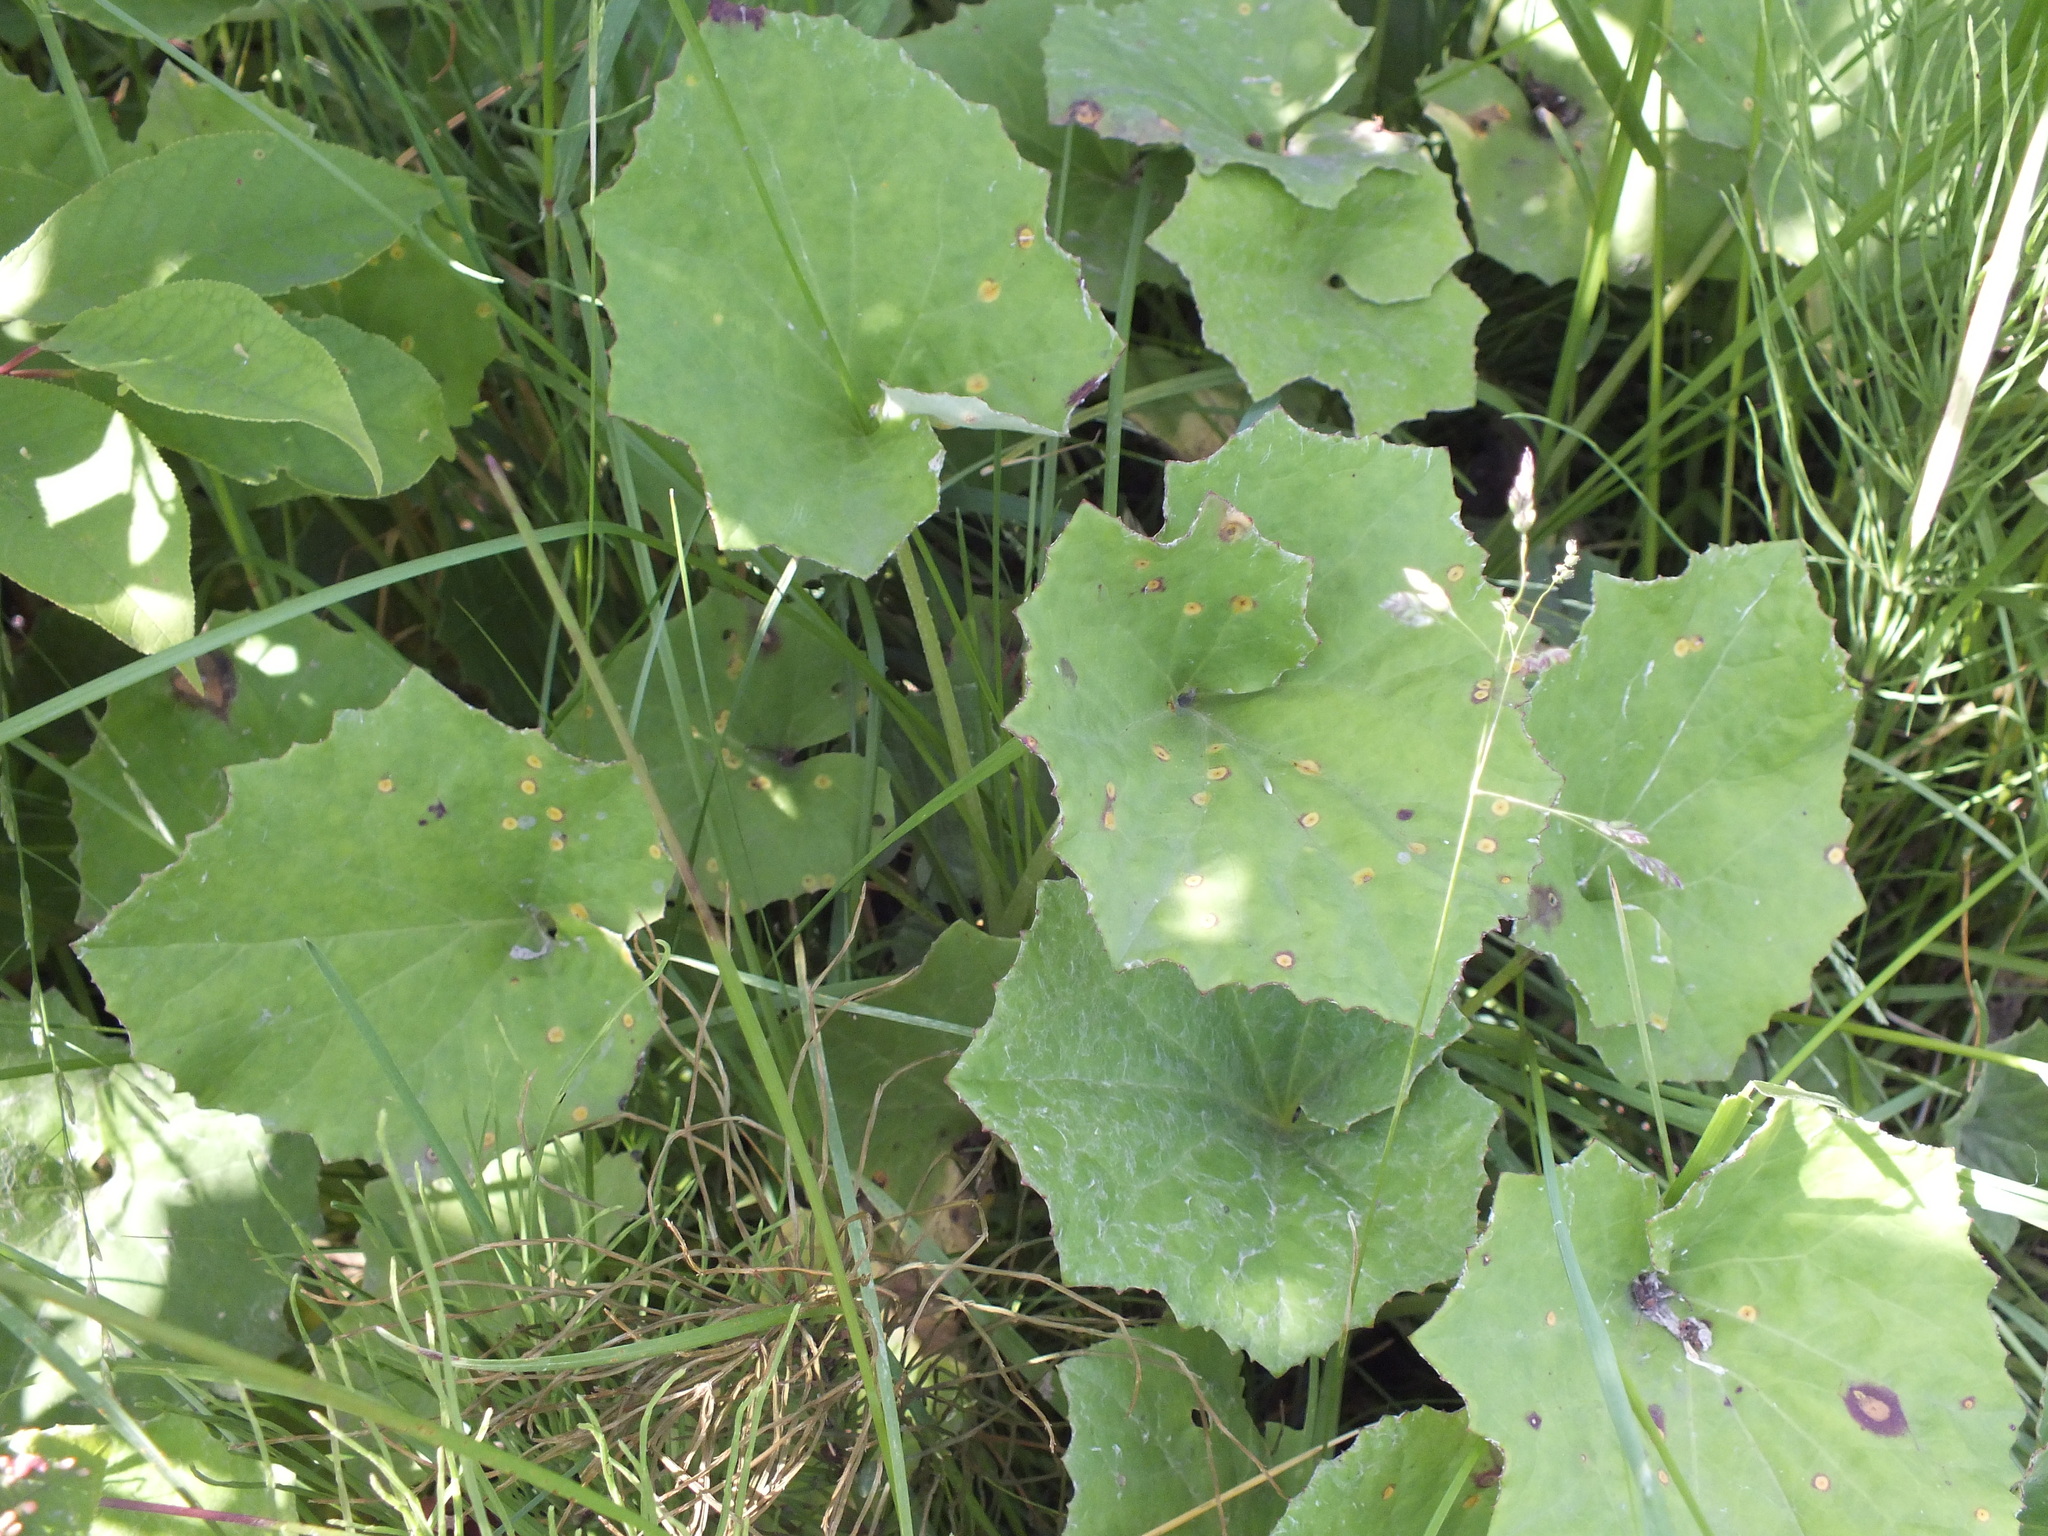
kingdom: Plantae
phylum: Tracheophyta
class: Magnoliopsida
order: Asterales
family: Asteraceae
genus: Tussilago
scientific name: Tussilago farfara
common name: Coltsfoot
